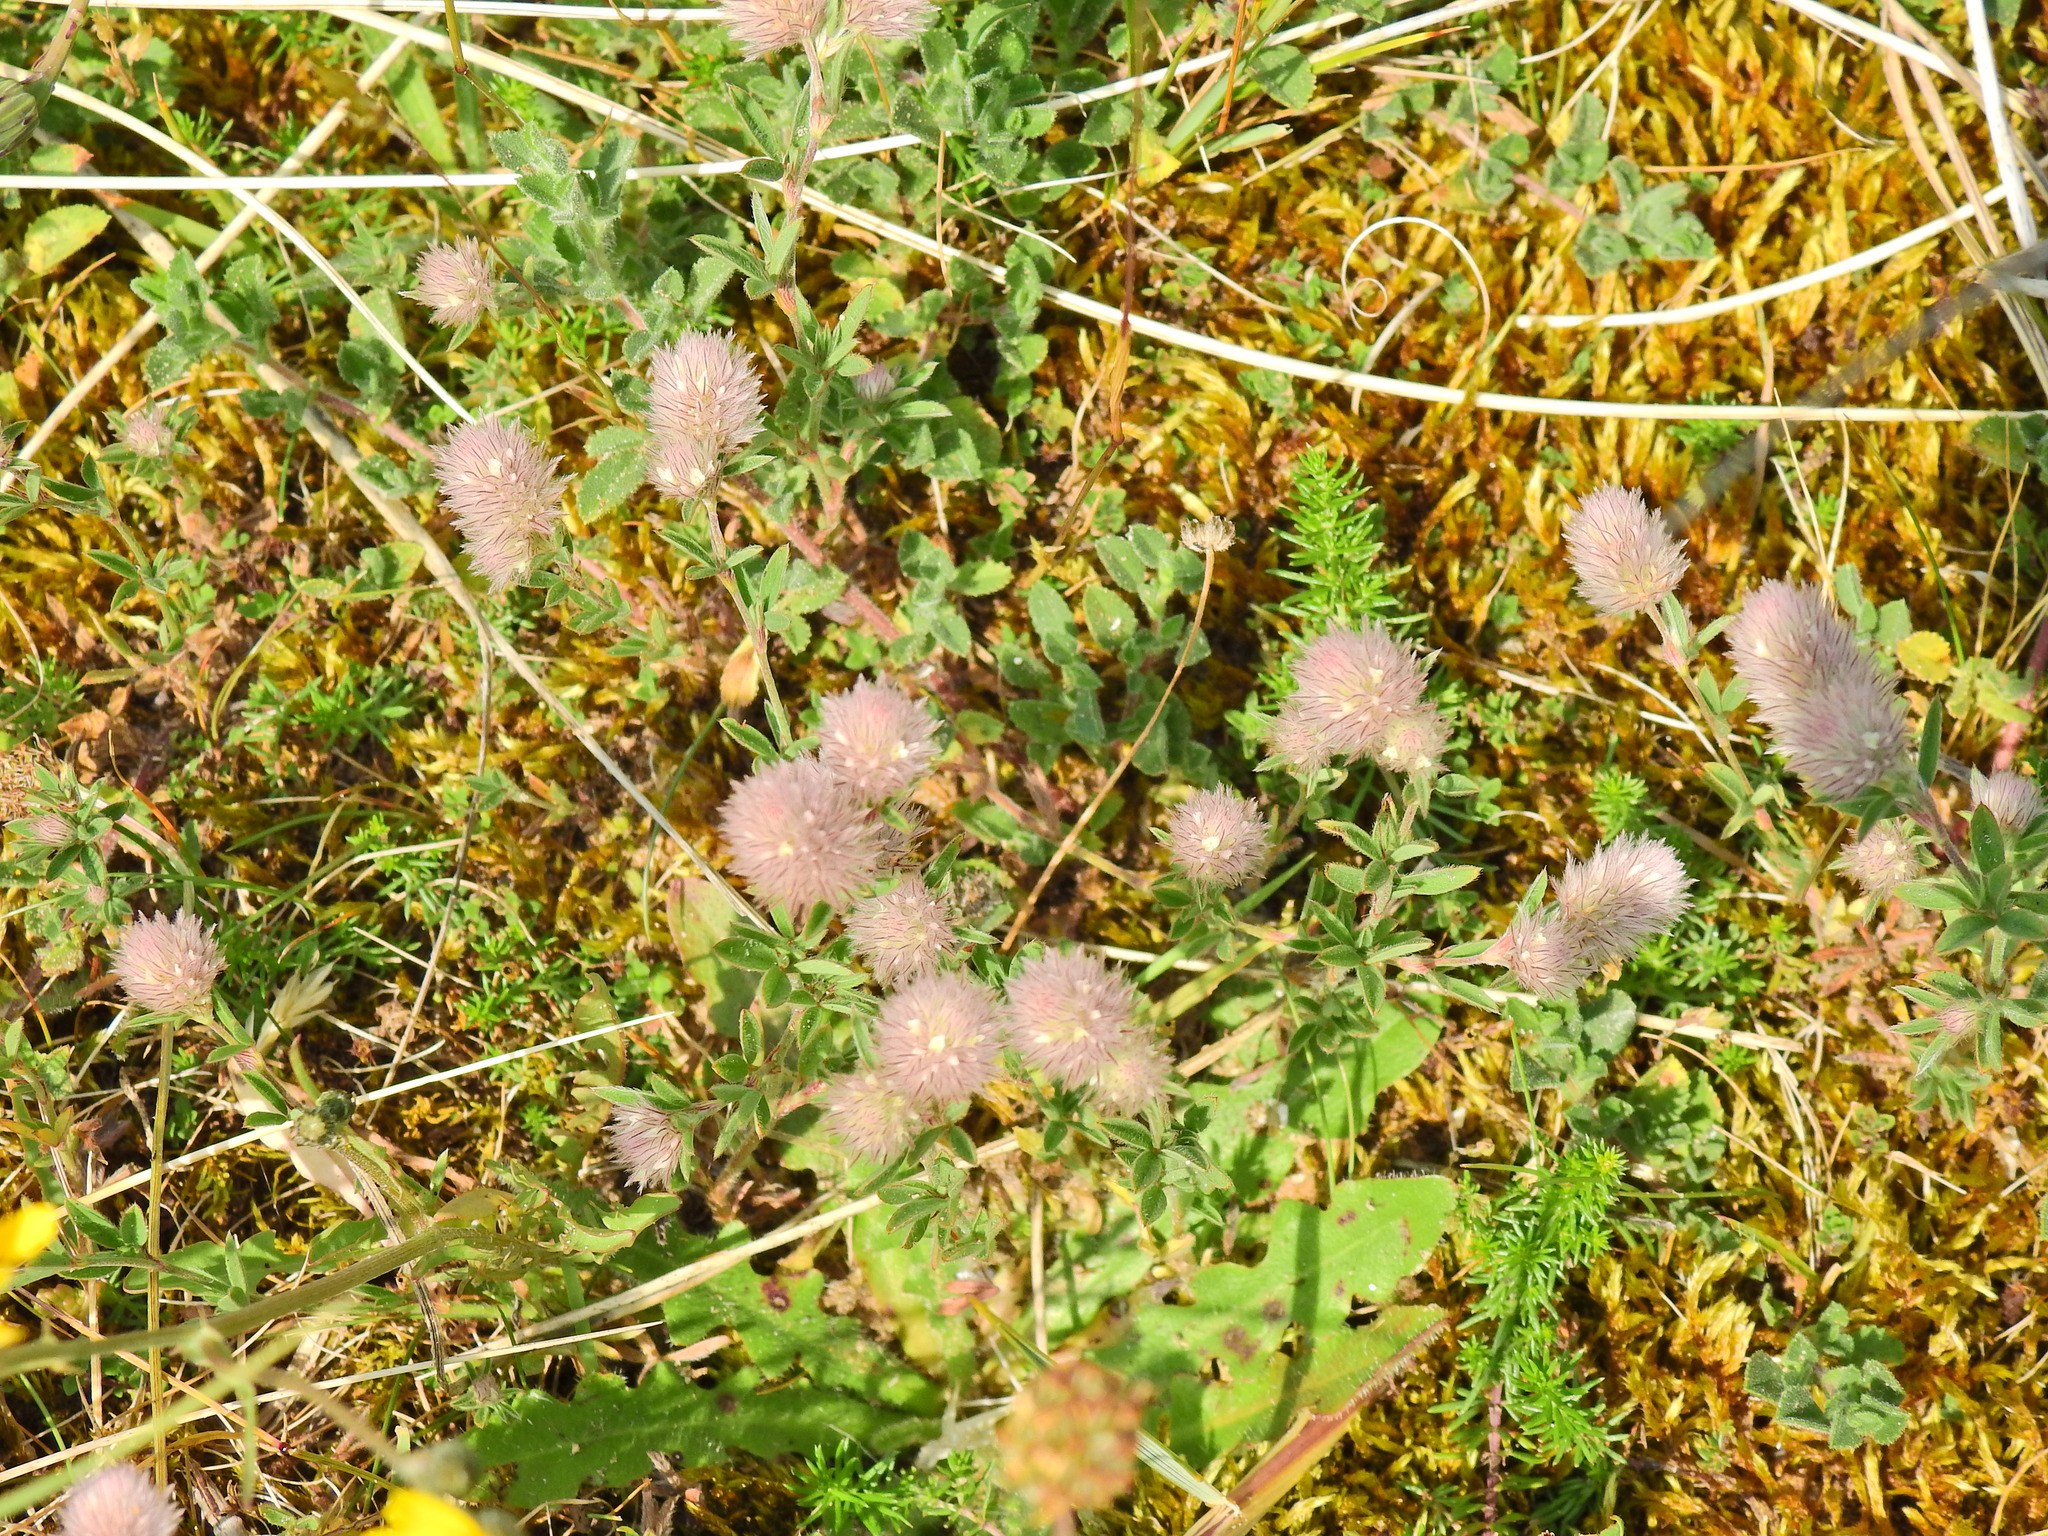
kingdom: Plantae
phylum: Tracheophyta
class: Magnoliopsida
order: Fabales
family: Fabaceae
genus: Trifolium
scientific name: Trifolium arvense
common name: Hare's-foot clover
